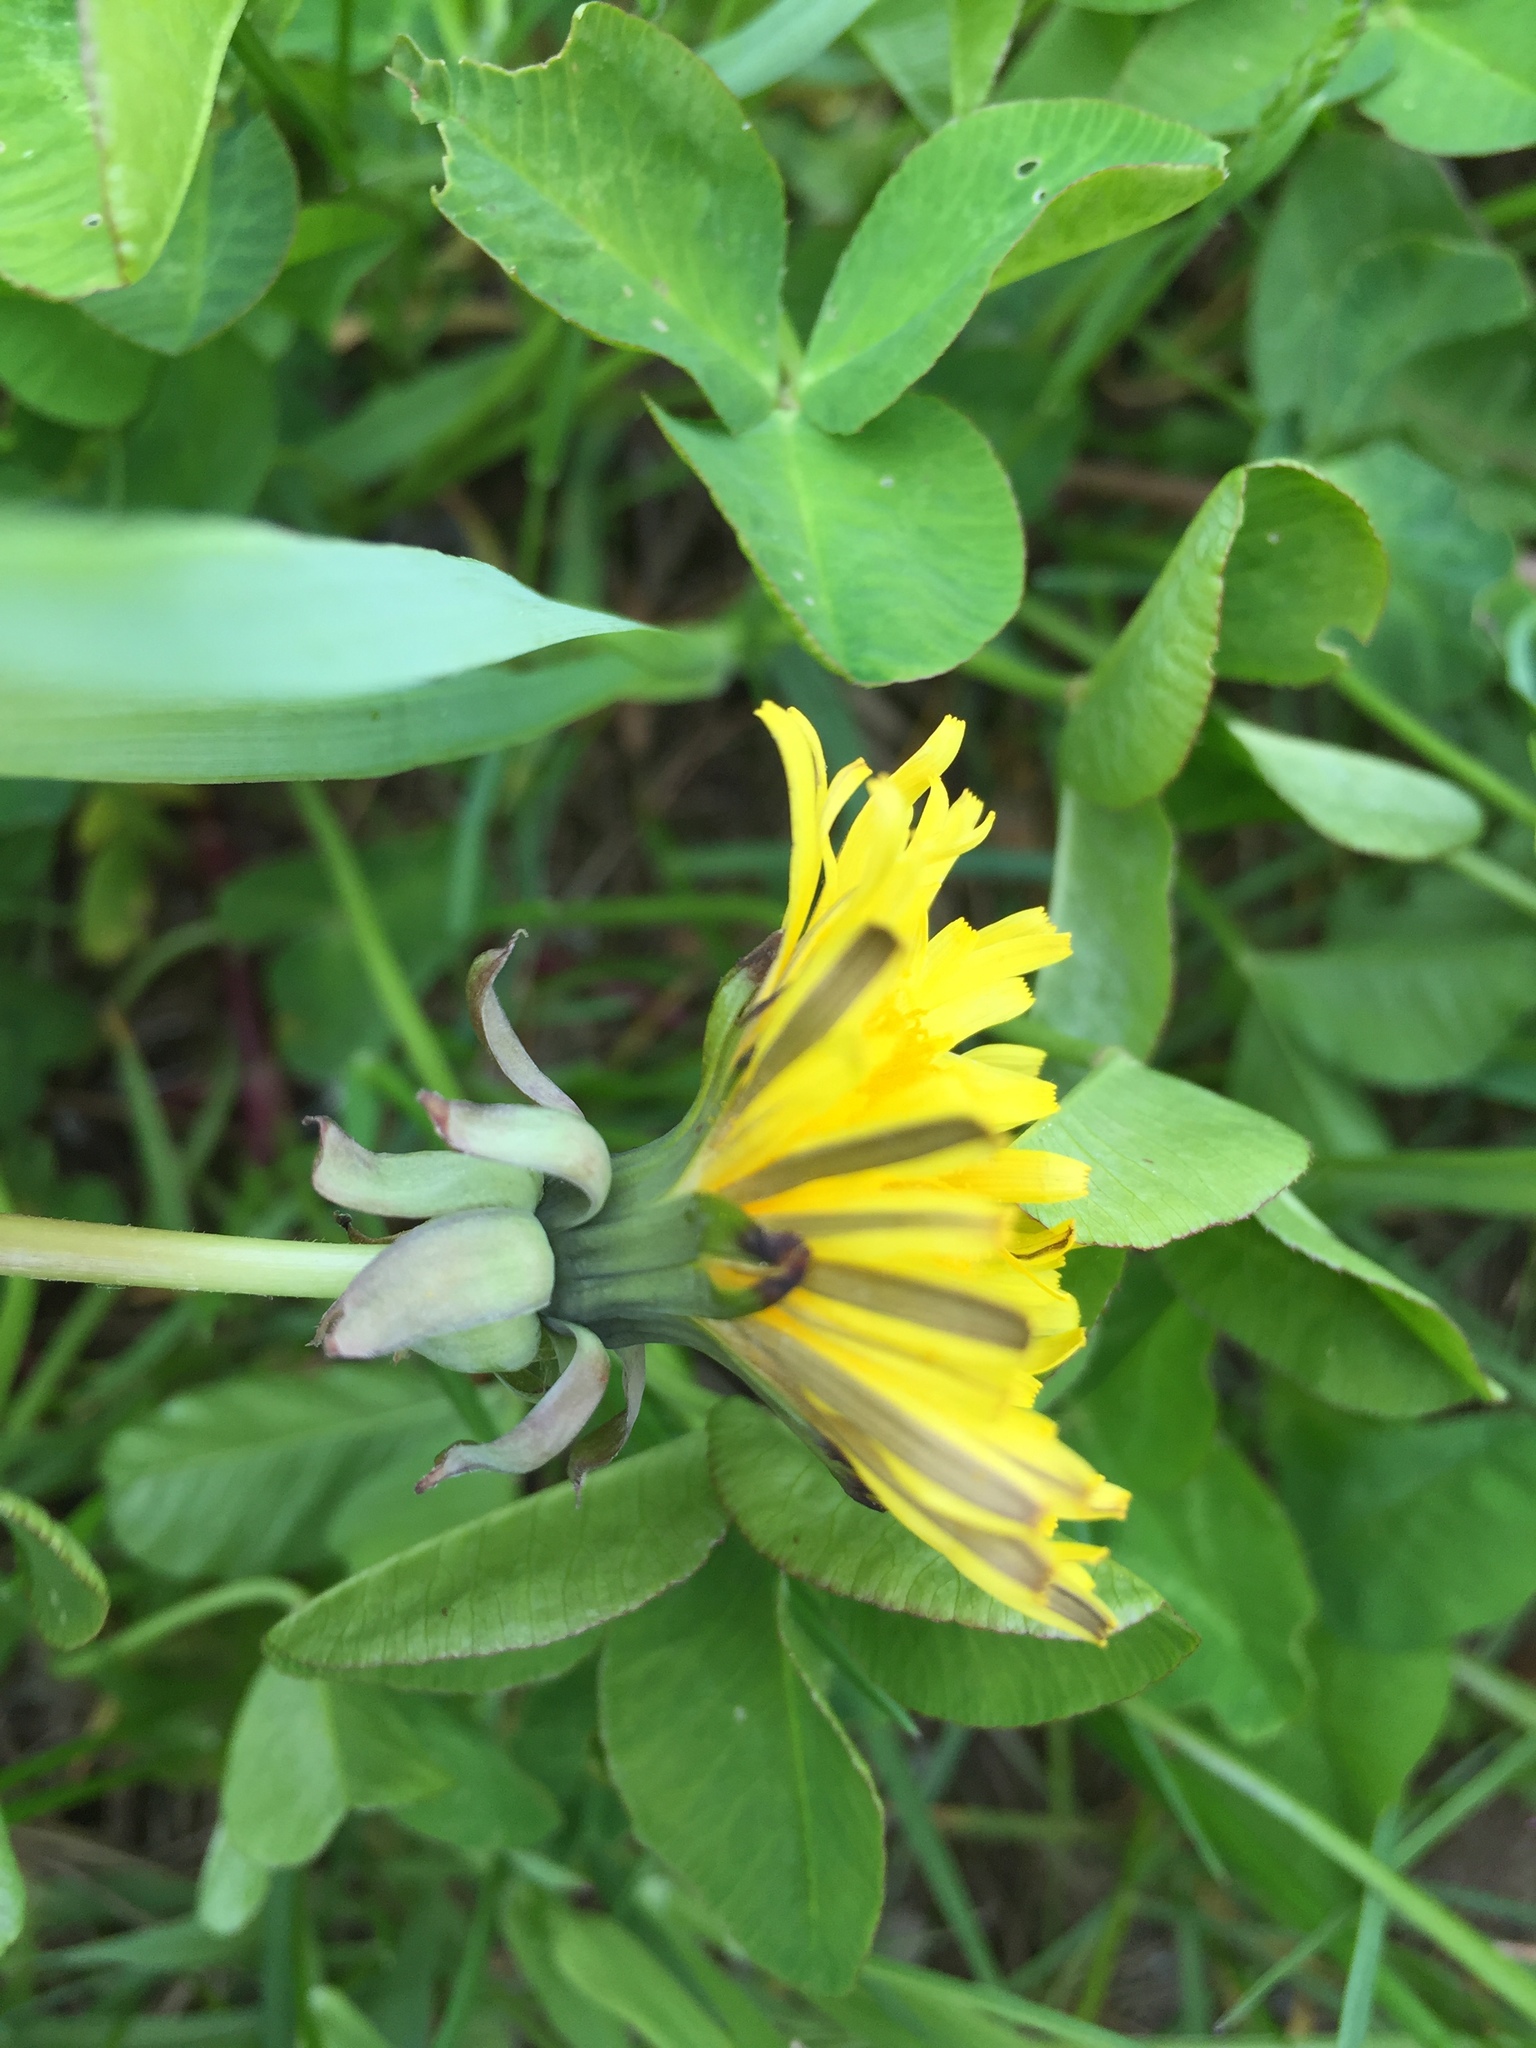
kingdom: Plantae
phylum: Tracheophyta
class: Magnoliopsida
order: Asterales
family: Asteraceae
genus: Taraxacum
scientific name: Taraxacum alatum
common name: Green dandelion
